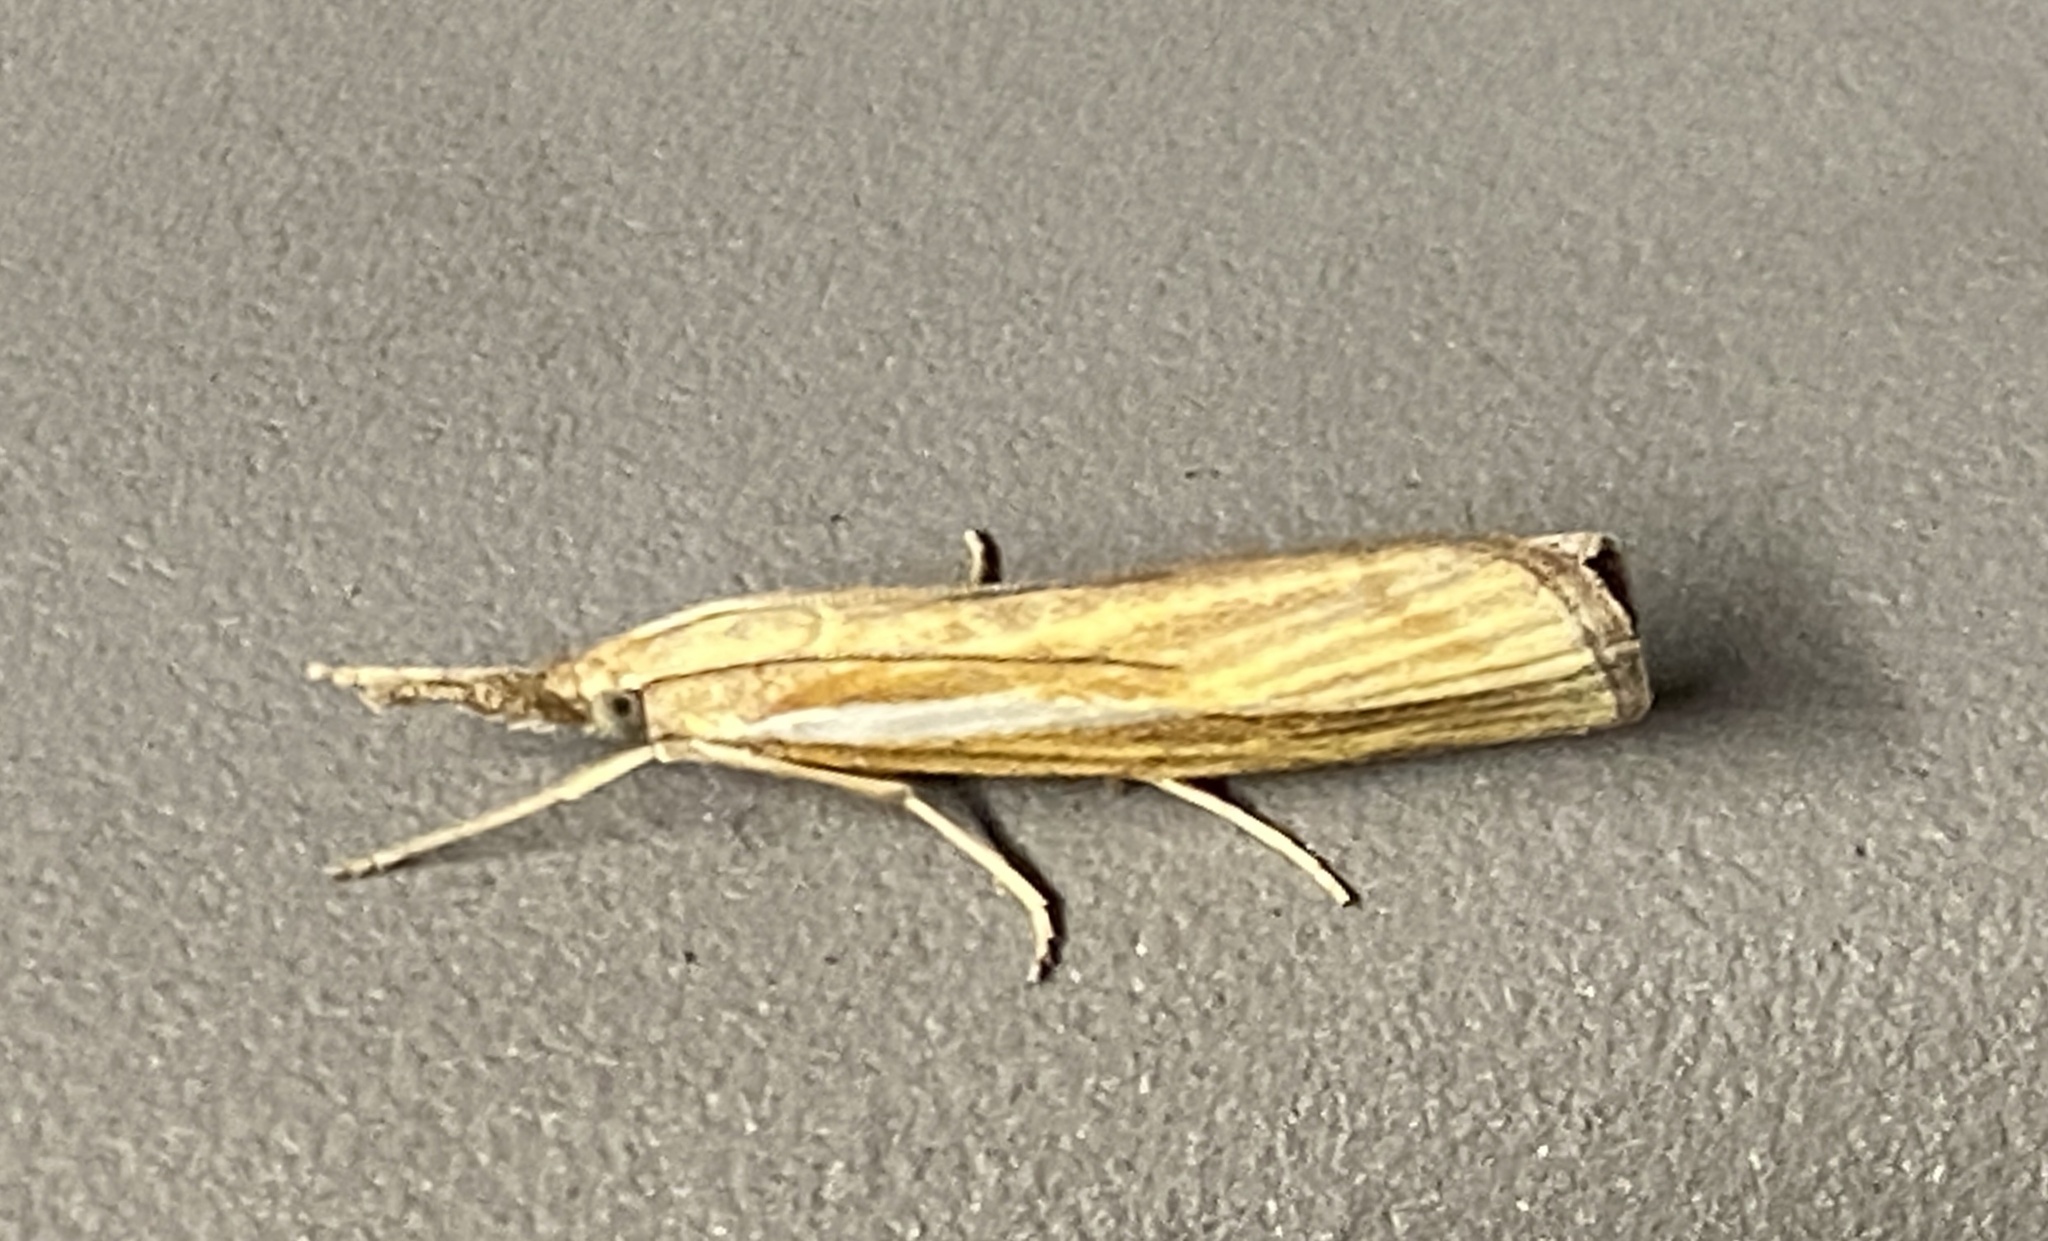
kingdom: Animalia
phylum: Arthropoda
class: Insecta
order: Lepidoptera
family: Crambidae
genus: Agriphila
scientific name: Agriphila tristellus
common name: Common grass-veneer
